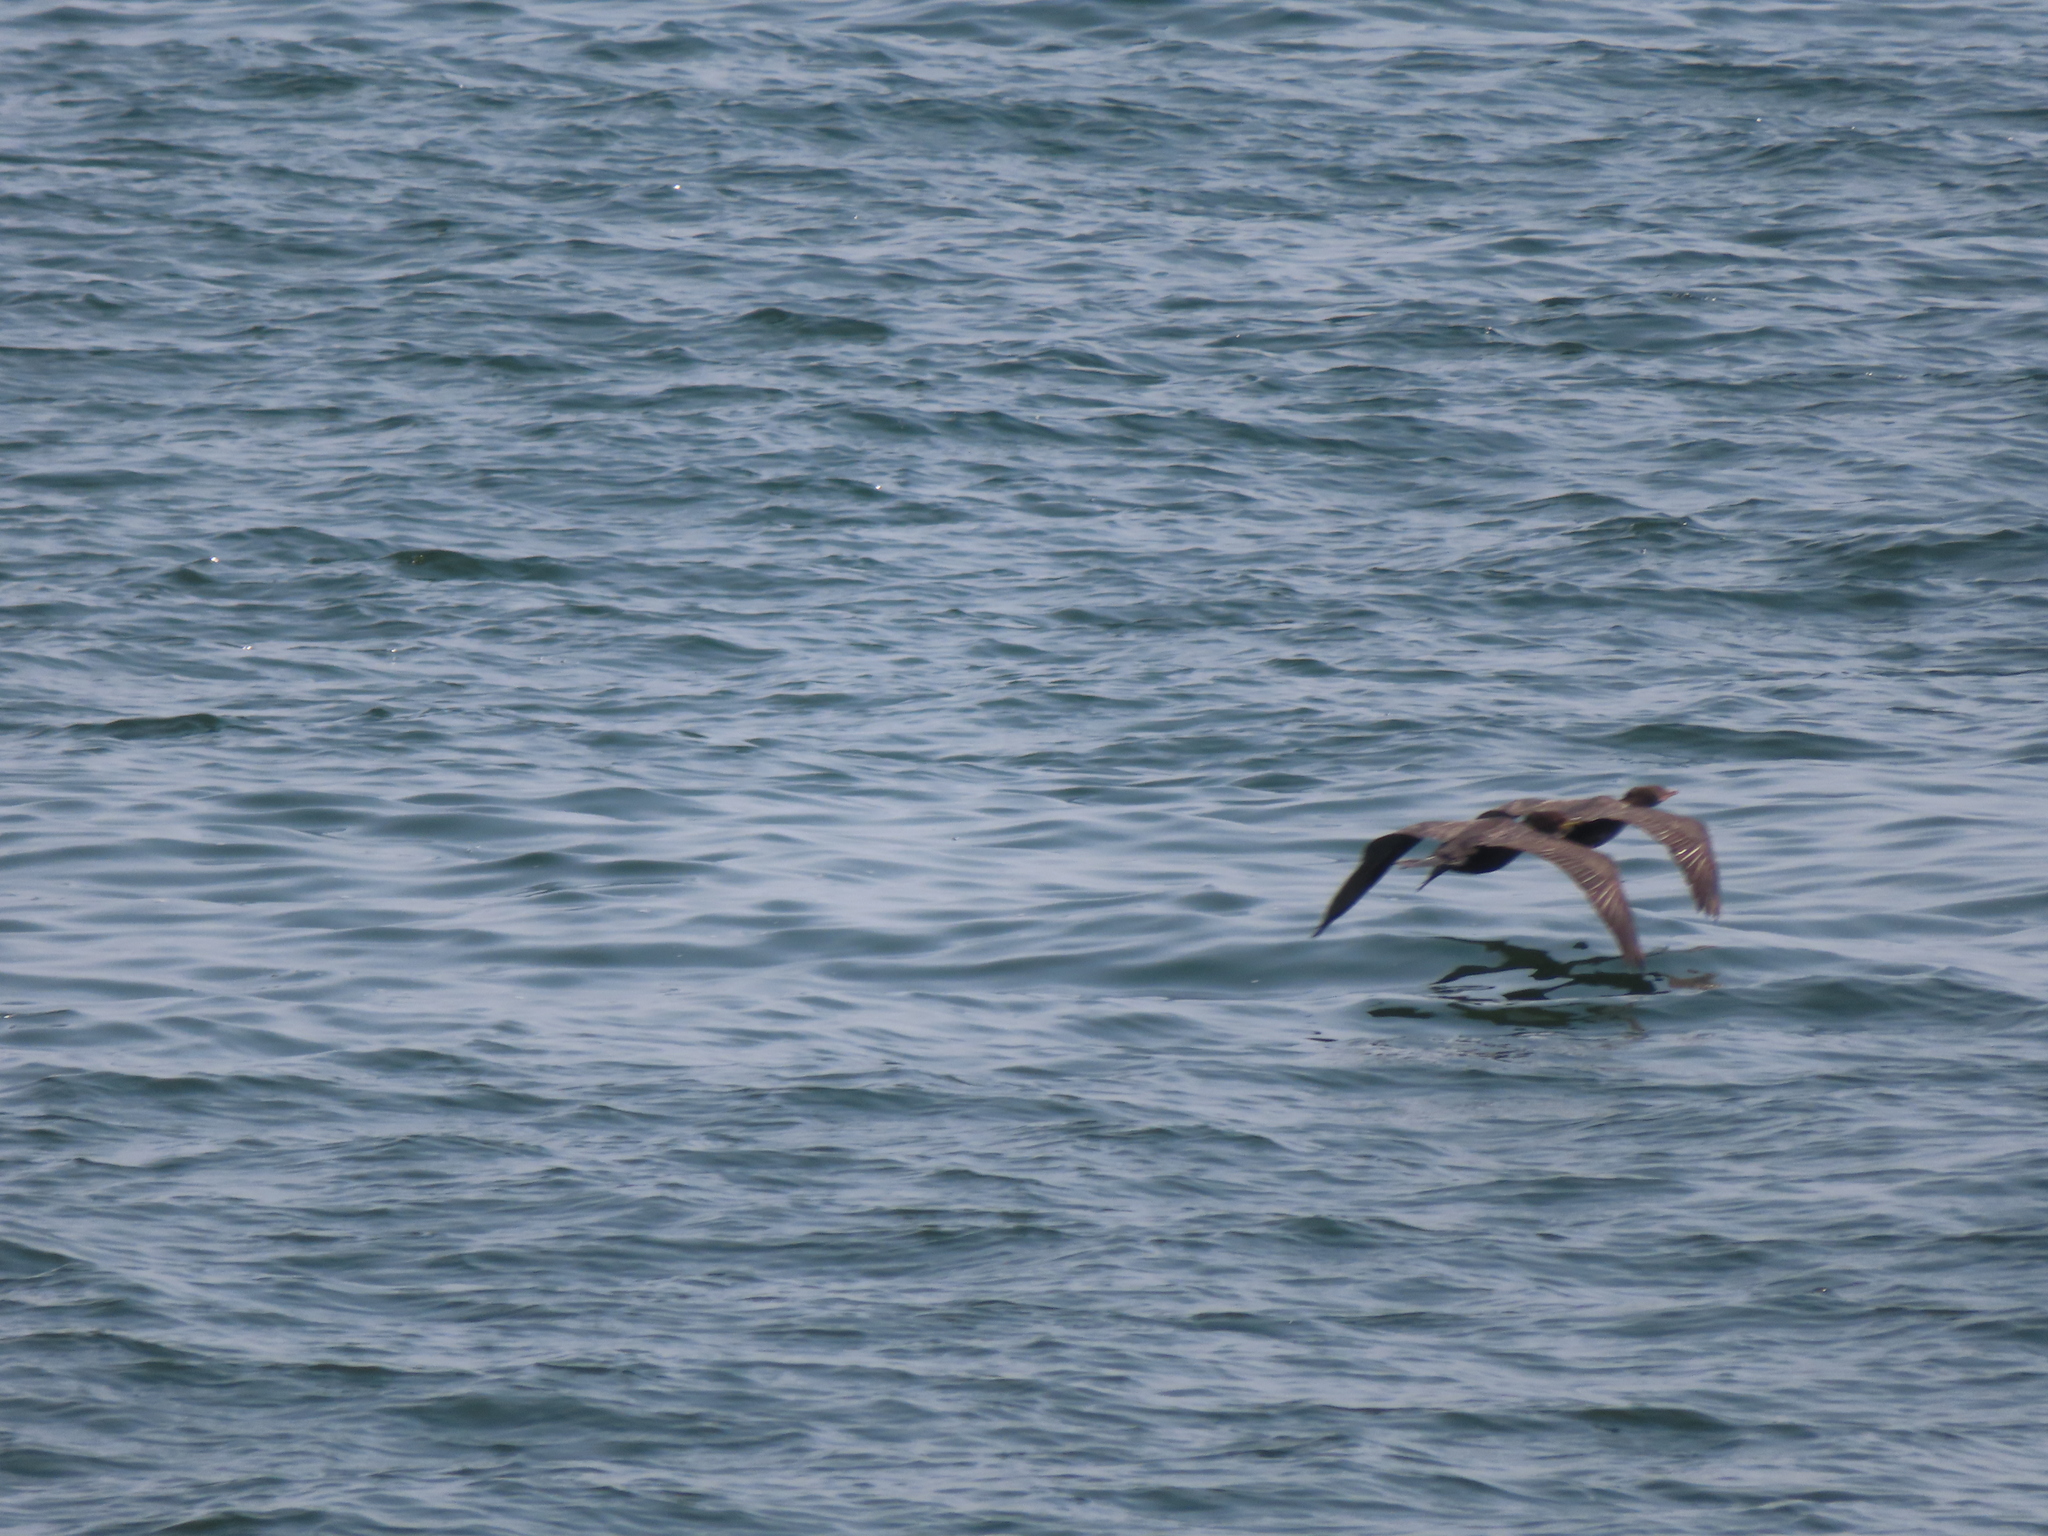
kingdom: Animalia
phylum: Chordata
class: Aves
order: Suliformes
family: Phalacrocoracidae
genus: Phalacrocorax
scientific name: Phalacrocorax auritus
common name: Double-crested cormorant
